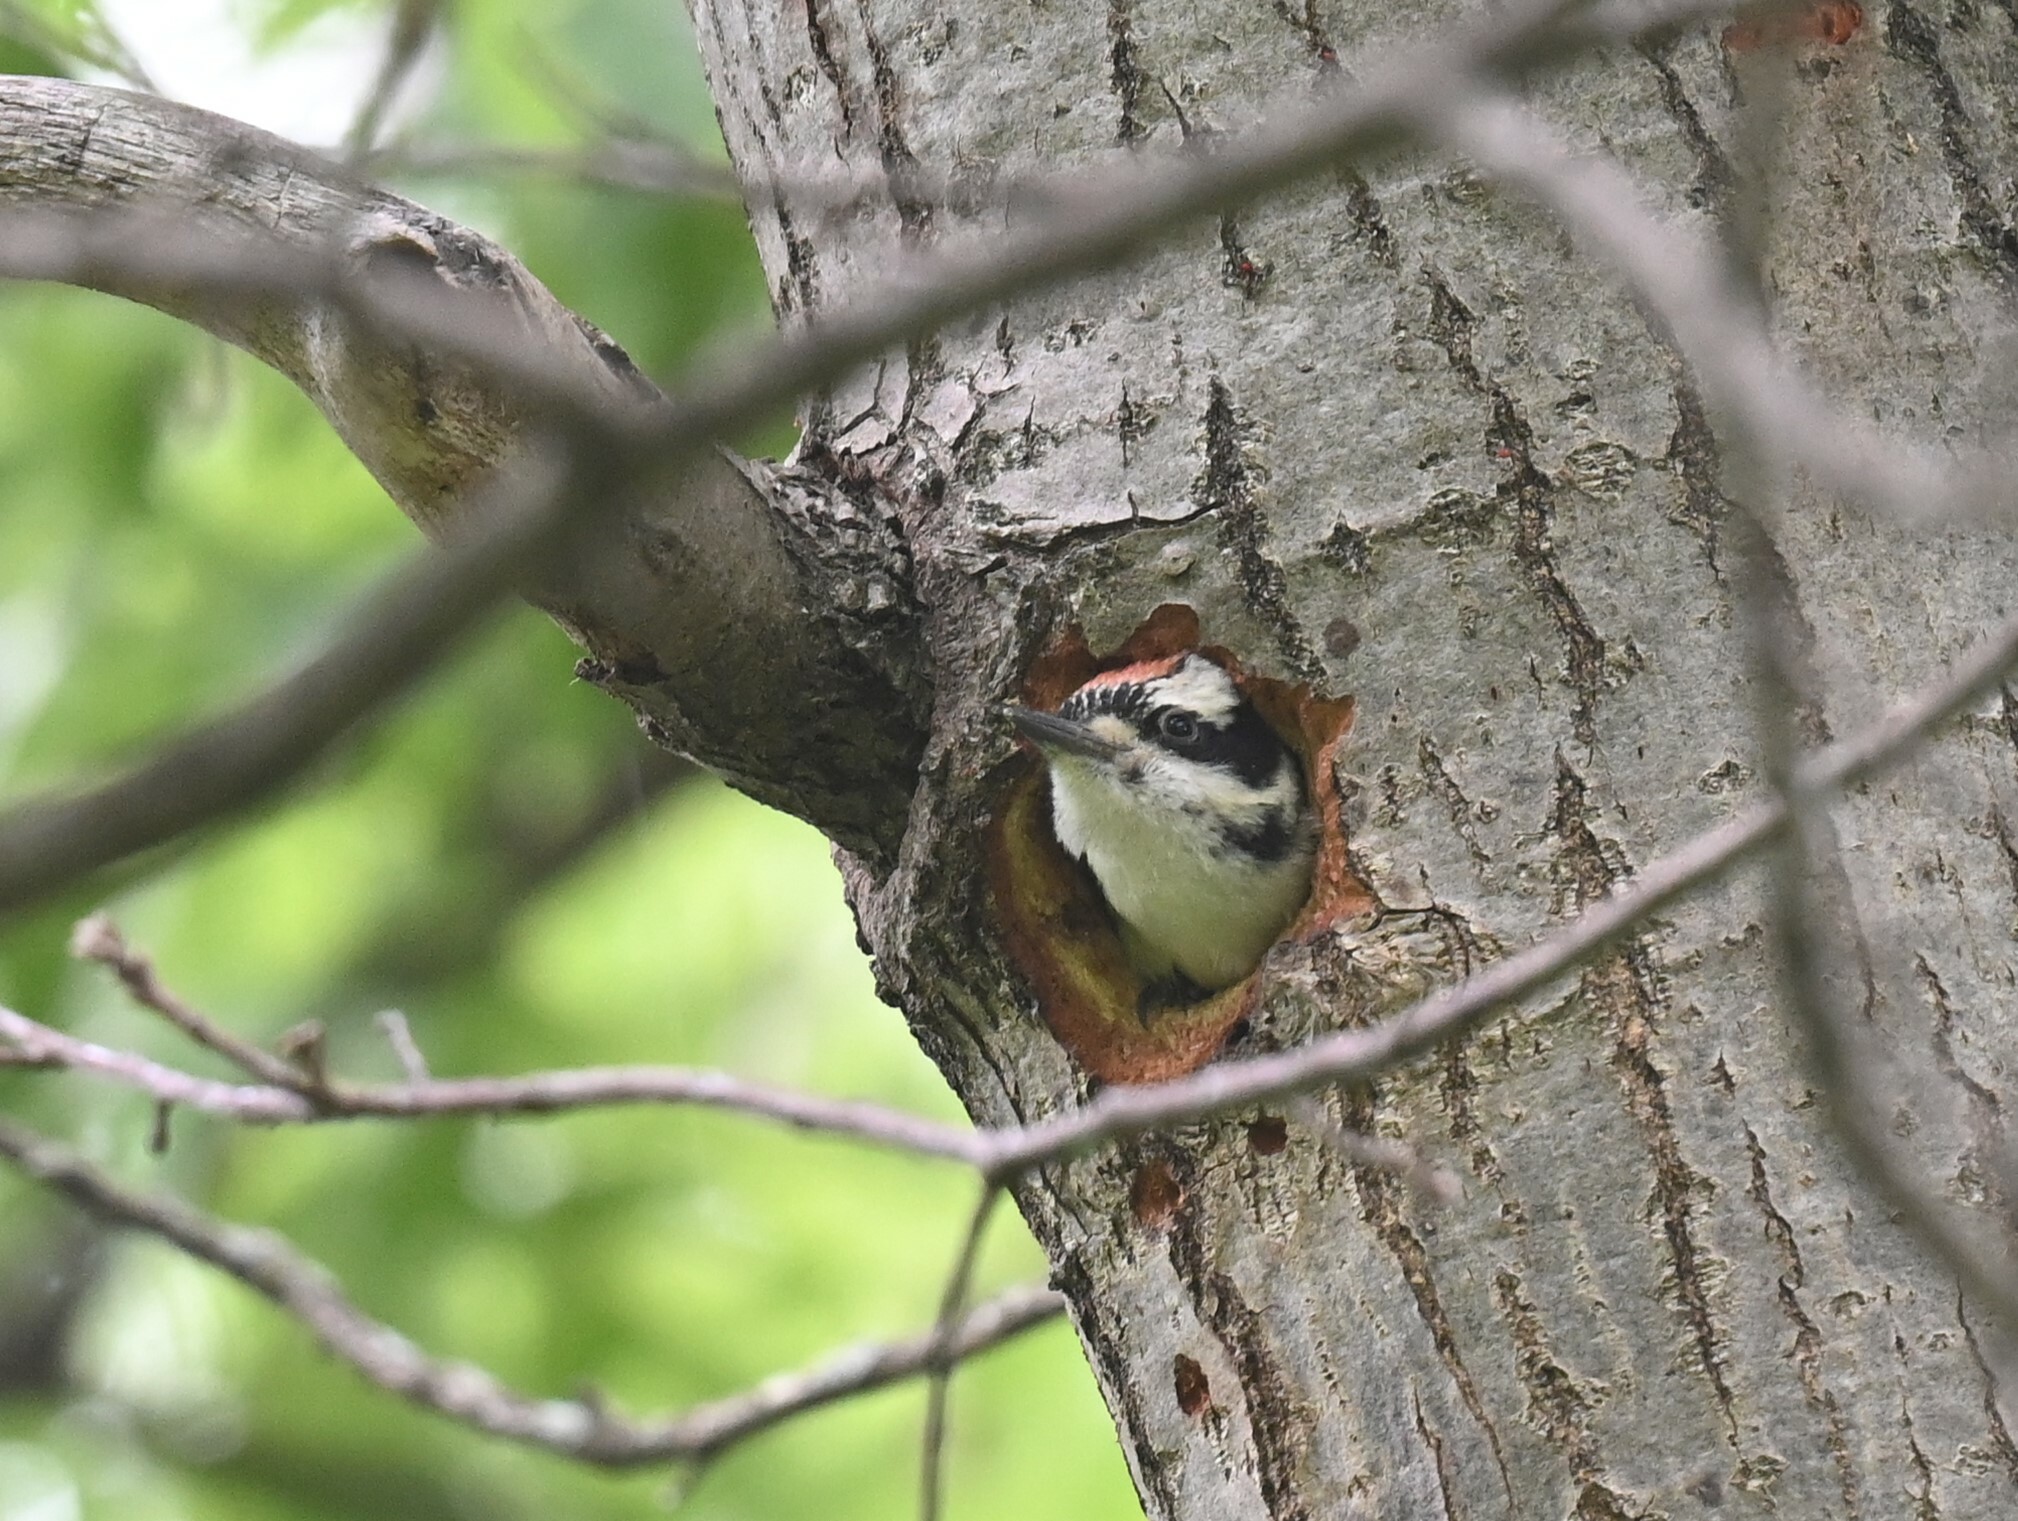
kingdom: Animalia
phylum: Chordata
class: Aves
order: Piciformes
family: Picidae
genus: Leuconotopicus
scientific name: Leuconotopicus villosus
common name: Hairy woodpecker
